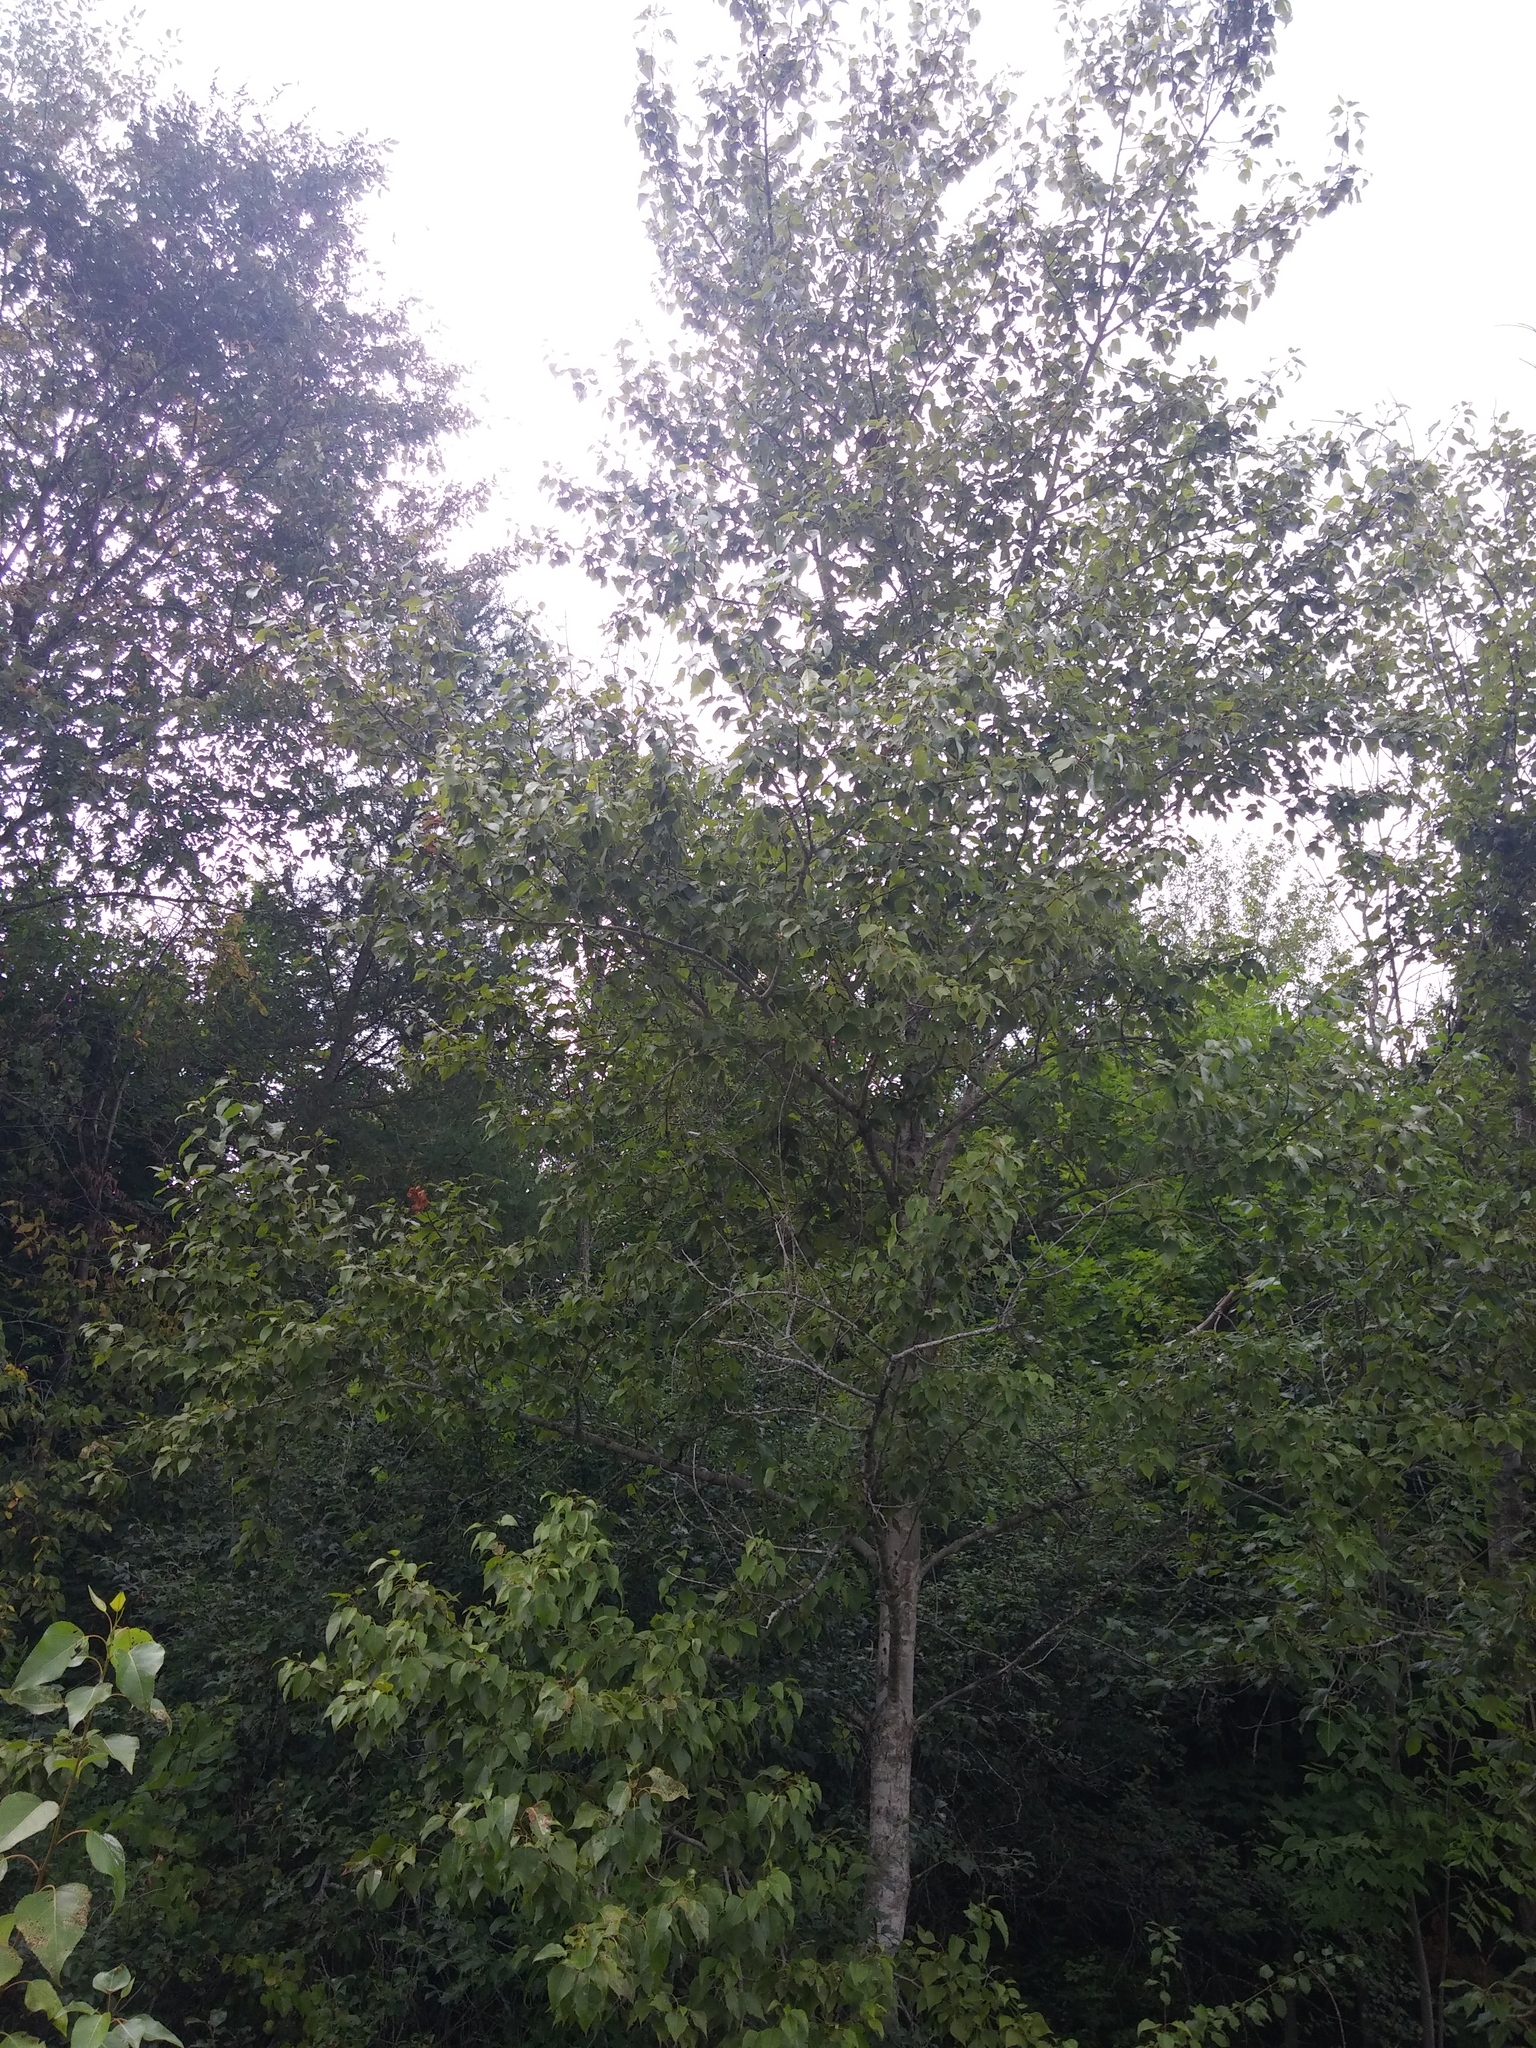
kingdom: Plantae
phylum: Tracheophyta
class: Magnoliopsida
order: Malpighiales
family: Salicaceae
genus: Populus
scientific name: Populus balsamifera
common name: Balsam poplar
